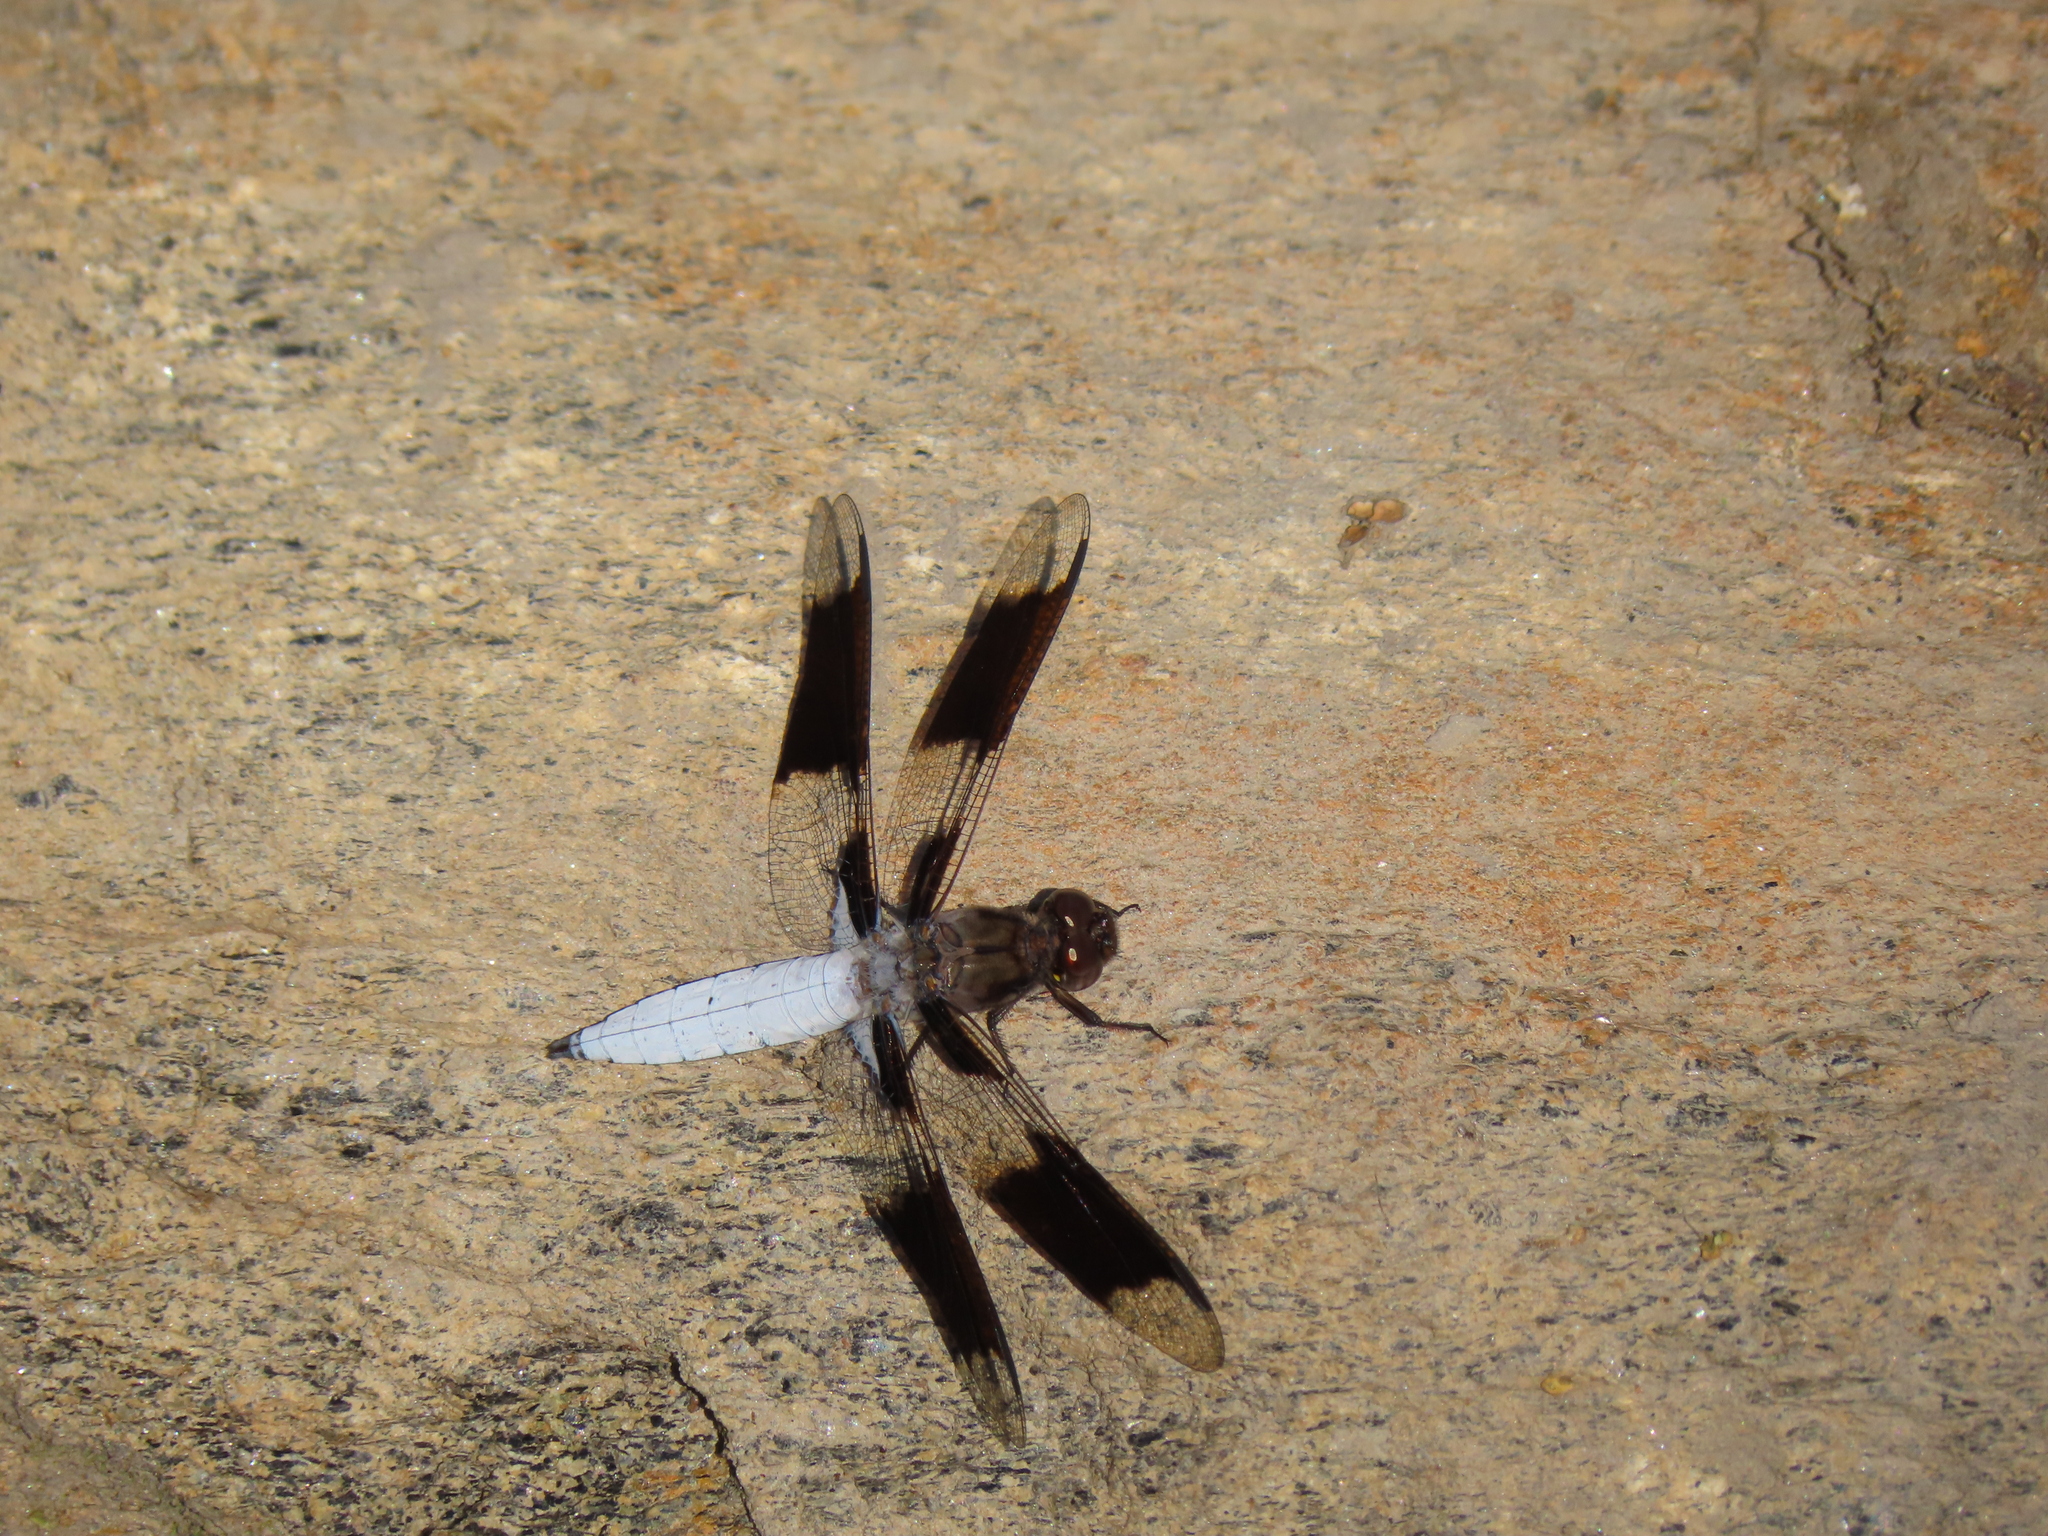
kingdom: Animalia
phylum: Arthropoda
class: Insecta
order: Odonata
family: Libellulidae
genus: Plathemis
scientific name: Plathemis lydia
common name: Common whitetail
